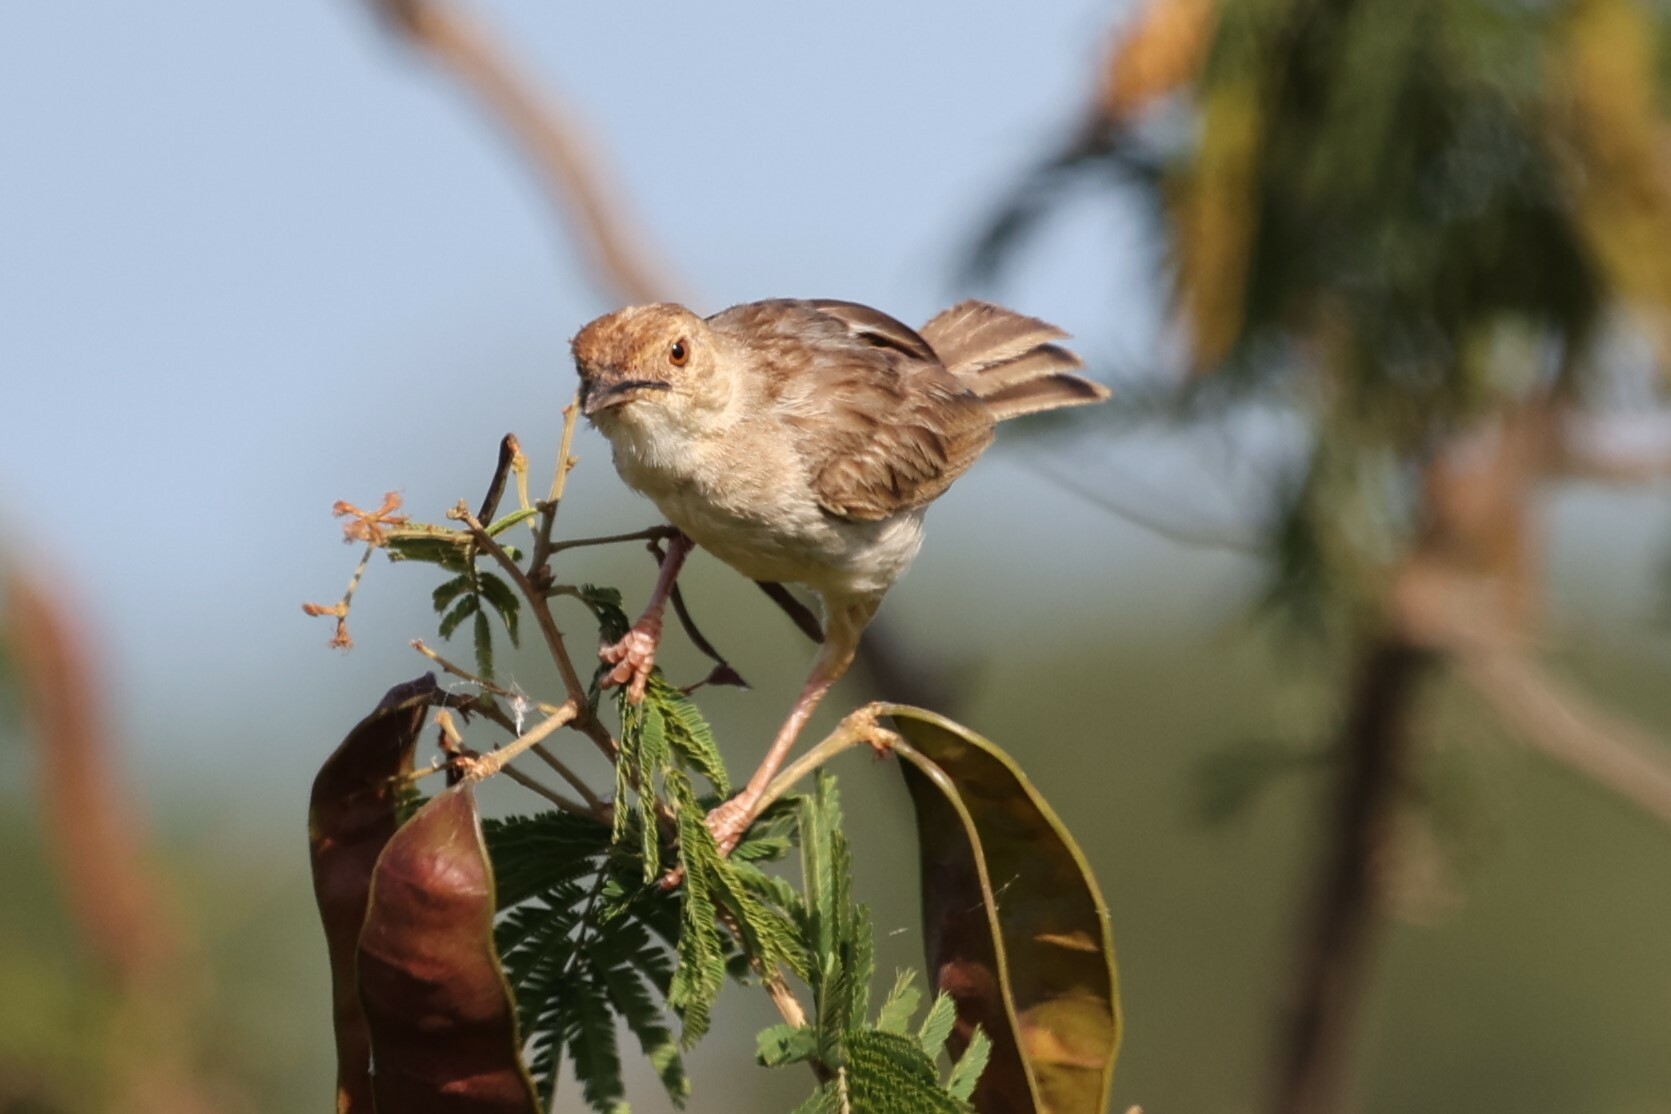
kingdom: Animalia
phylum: Chordata
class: Aves
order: Passeriformes
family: Cisticolidae
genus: Cisticola
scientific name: Cisticola chiniana
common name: Rattling cisticola
